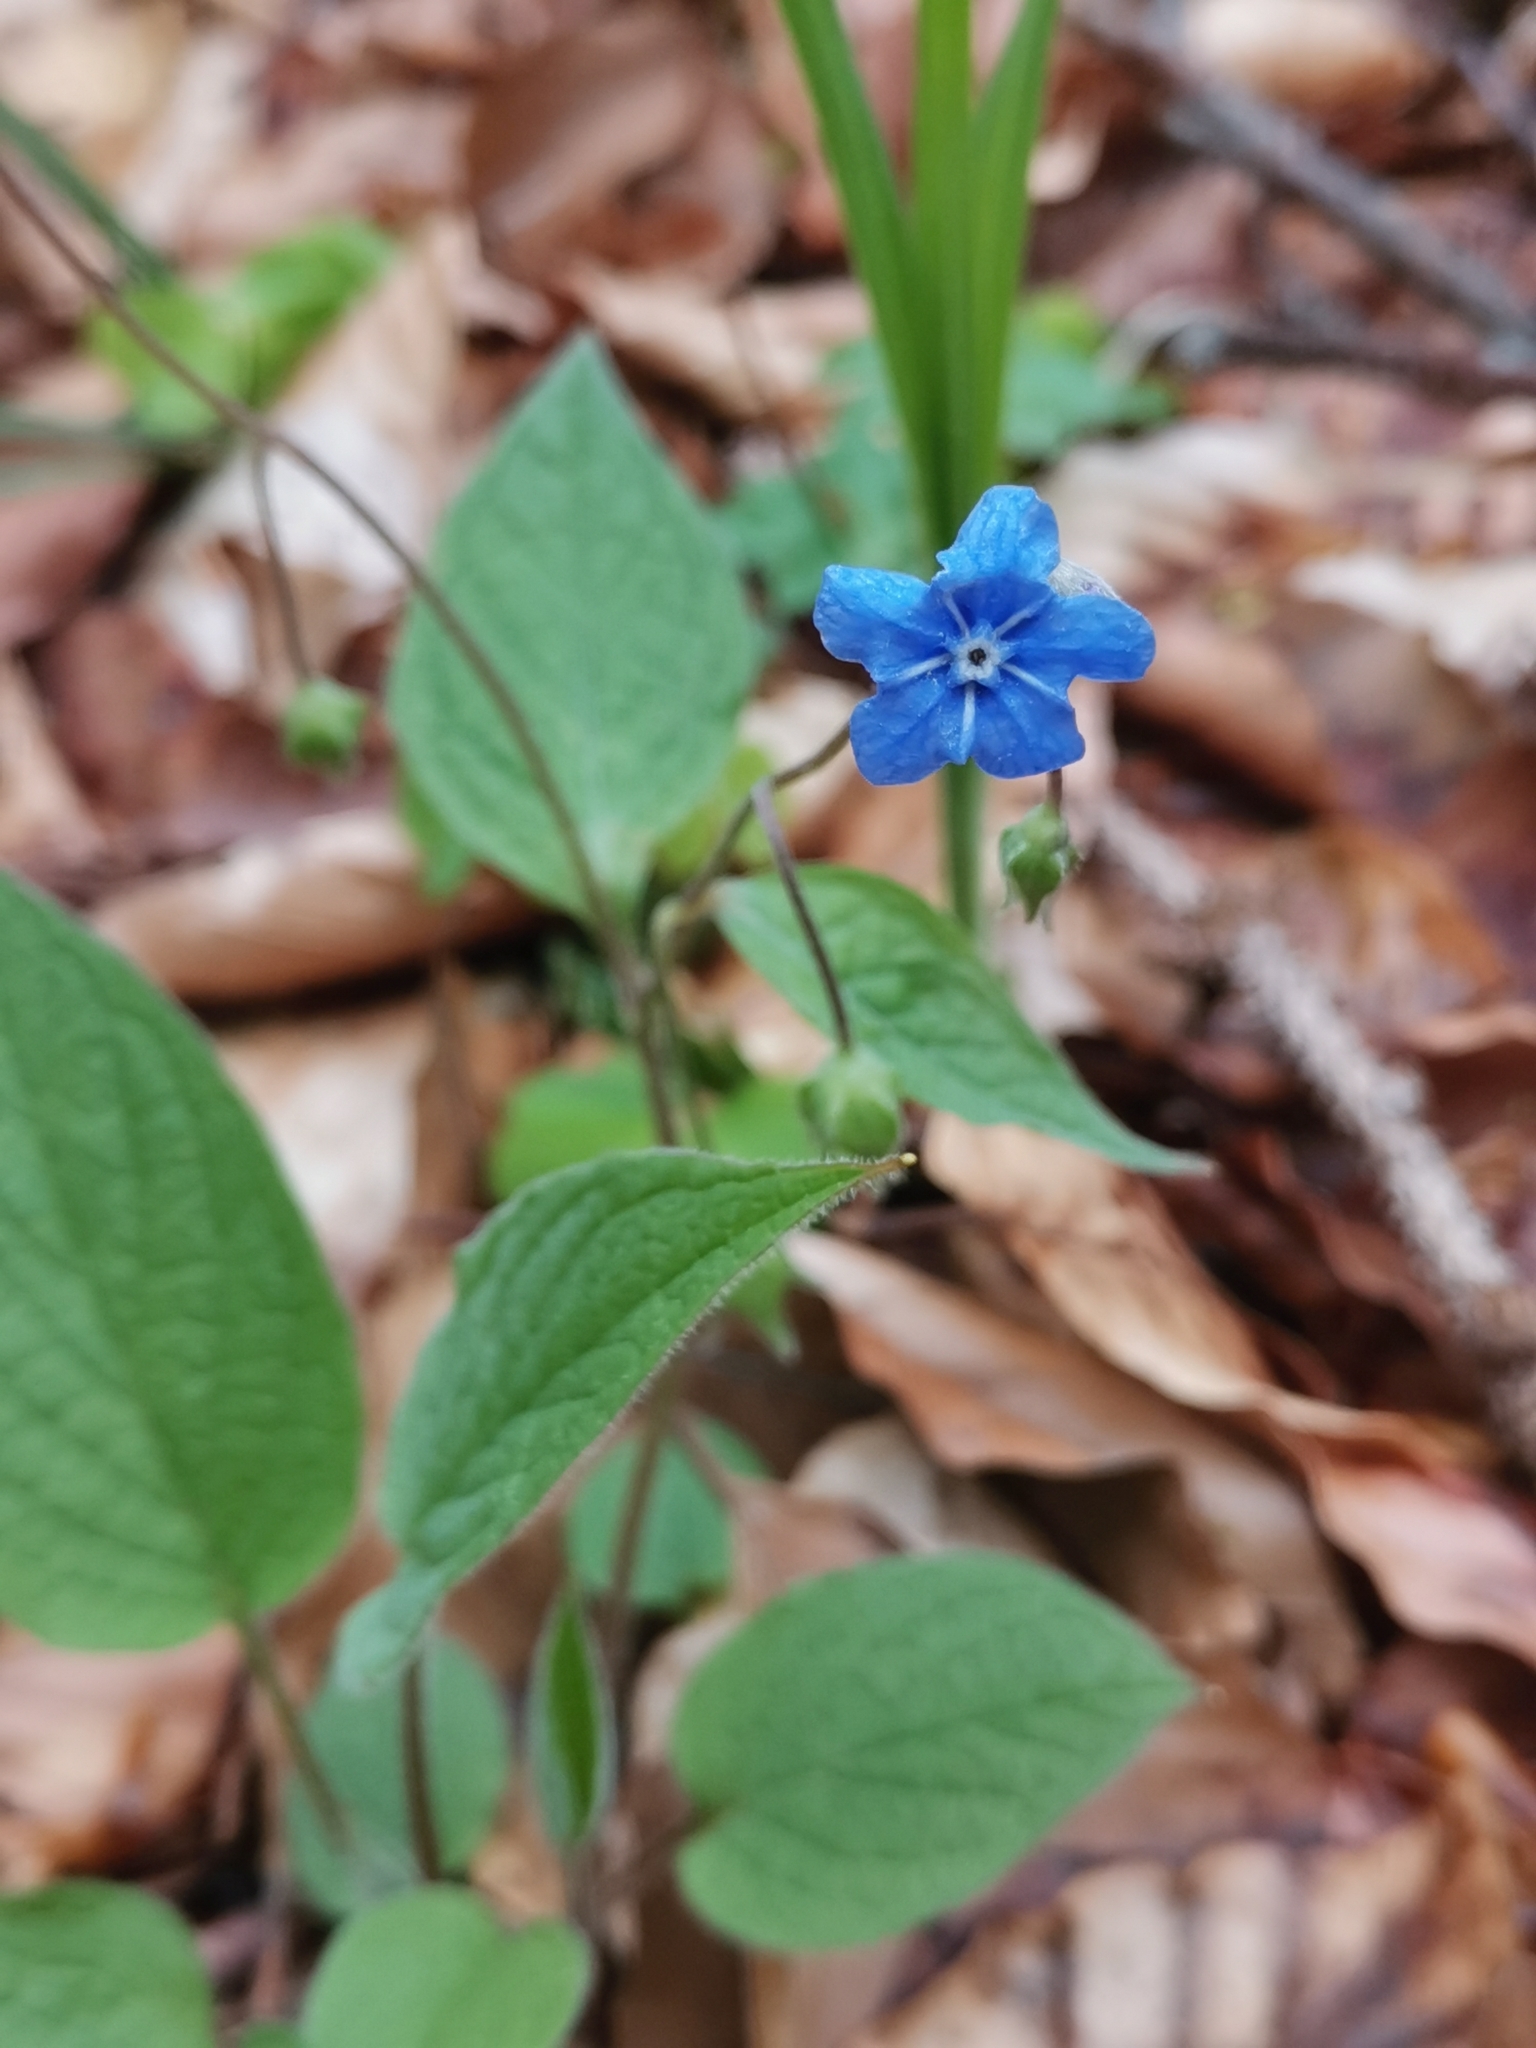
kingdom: Plantae
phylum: Tracheophyta
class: Magnoliopsida
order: Boraginales
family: Boraginaceae
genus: Omphalodes
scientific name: Omphalodes verna
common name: Blue-eyed-mary
